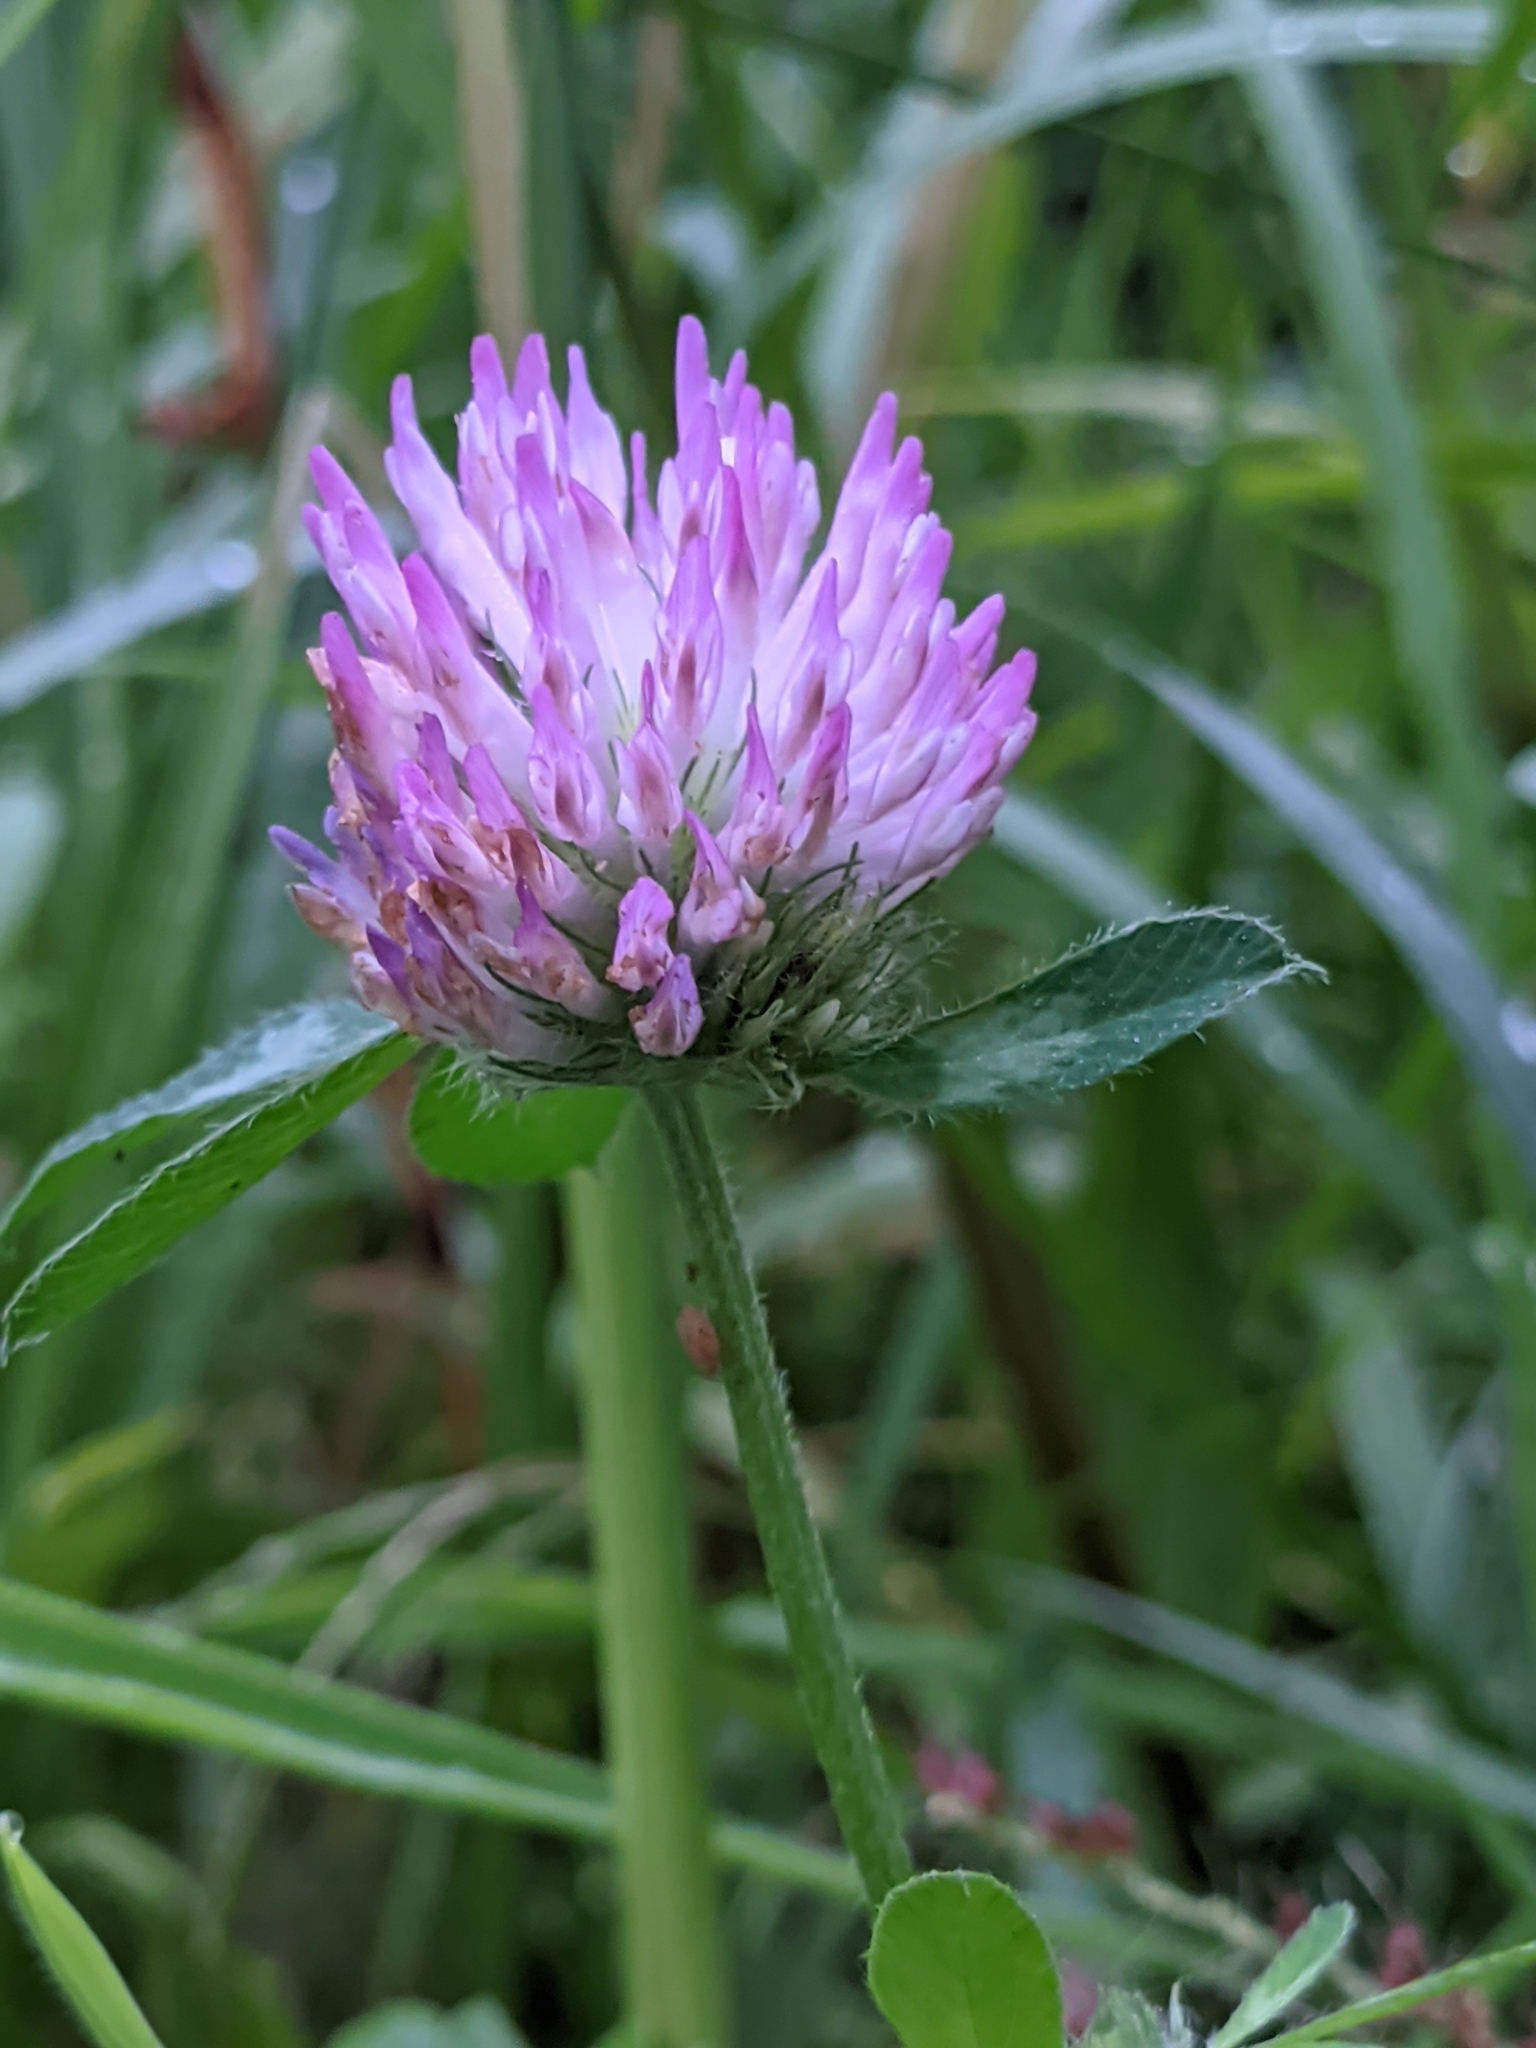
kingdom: Plantae
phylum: Tracheophyta
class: Magnoliopsida
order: Fabales
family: Fabaceae
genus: Trifolium
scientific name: Trifolium pratense
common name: Red clover
